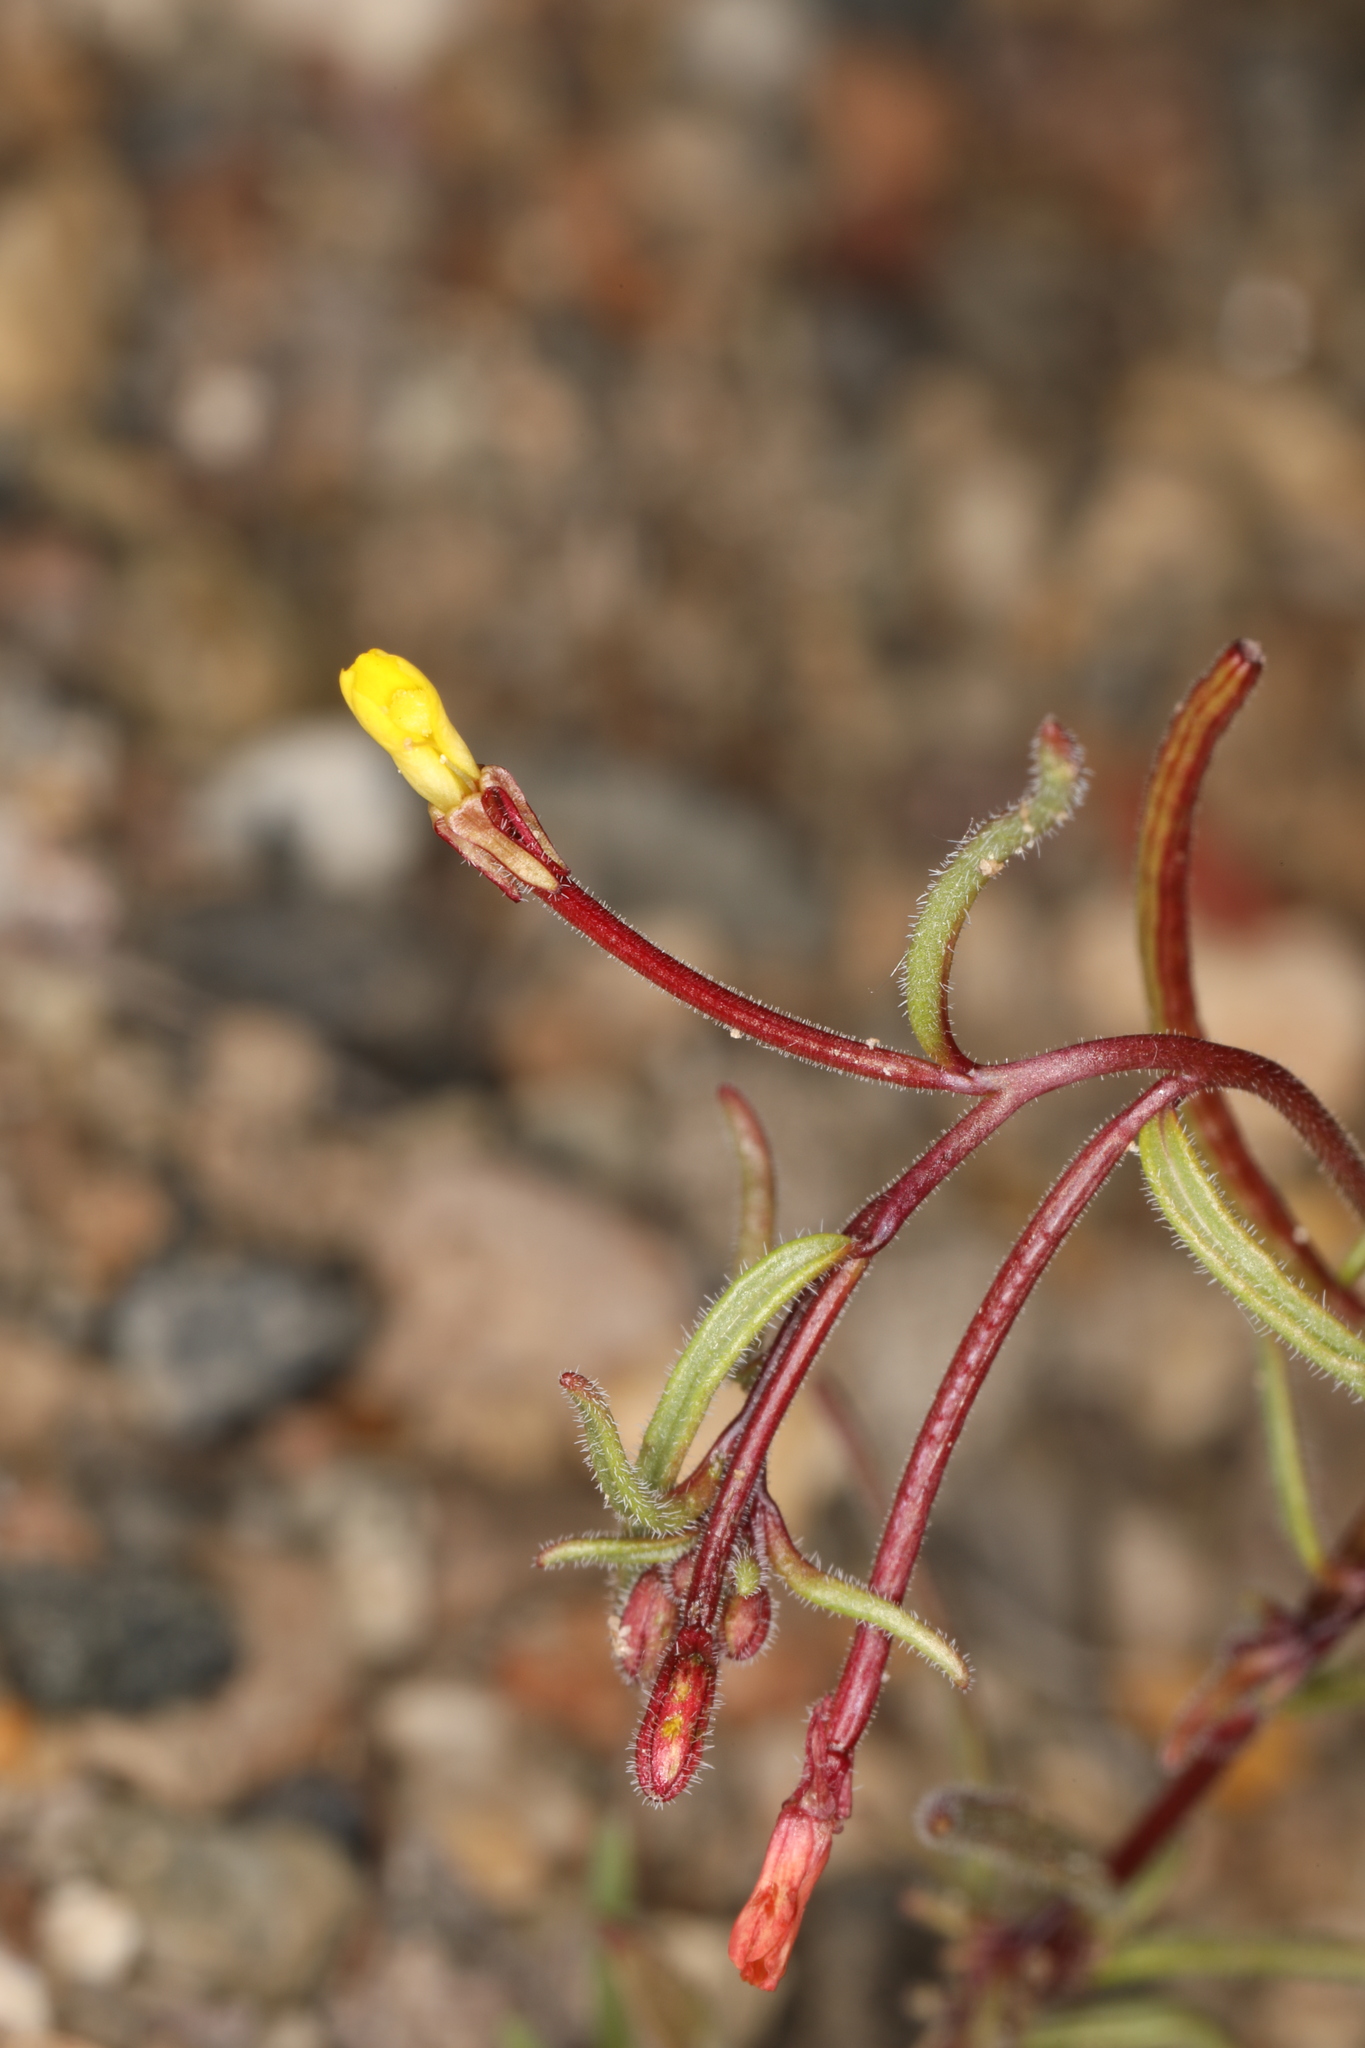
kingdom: Plantae
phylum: Tracheophyta
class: Magnoliopsida
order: Myrtales
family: Onagraceae
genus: Camissonia
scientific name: Camissonia pusilla
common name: Obscure camissonia
